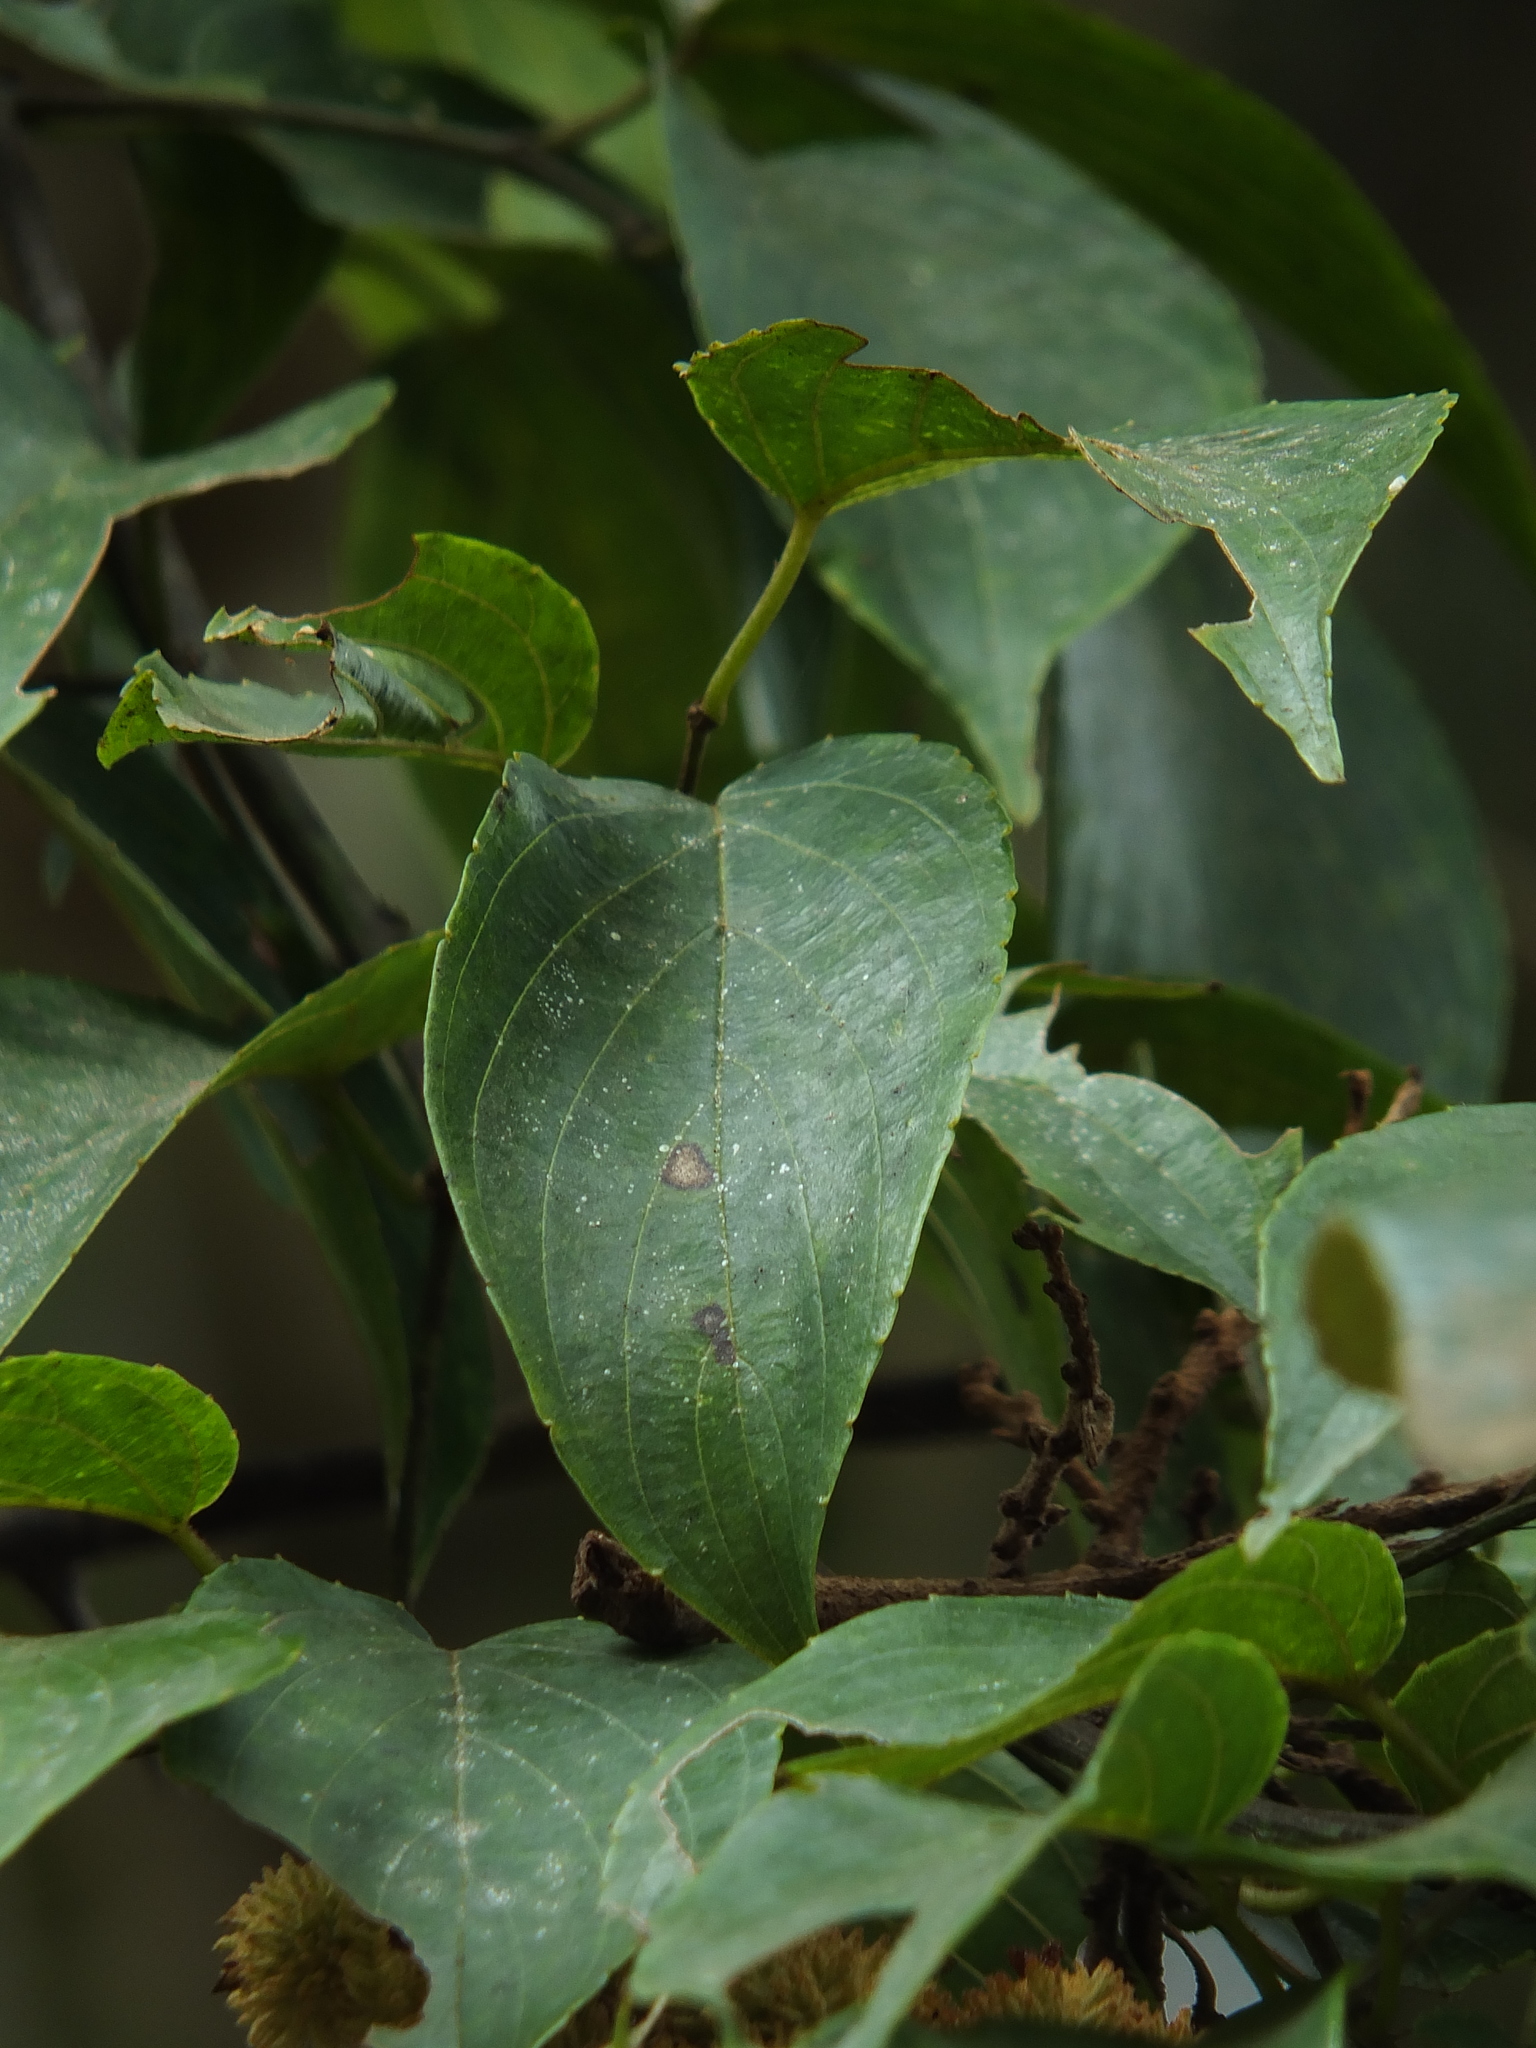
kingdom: Plantae
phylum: Tracheophyta
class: Magnoliopsida
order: Rosales
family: Rhamnaceae
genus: Gouania
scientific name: Gouania microcarpa
